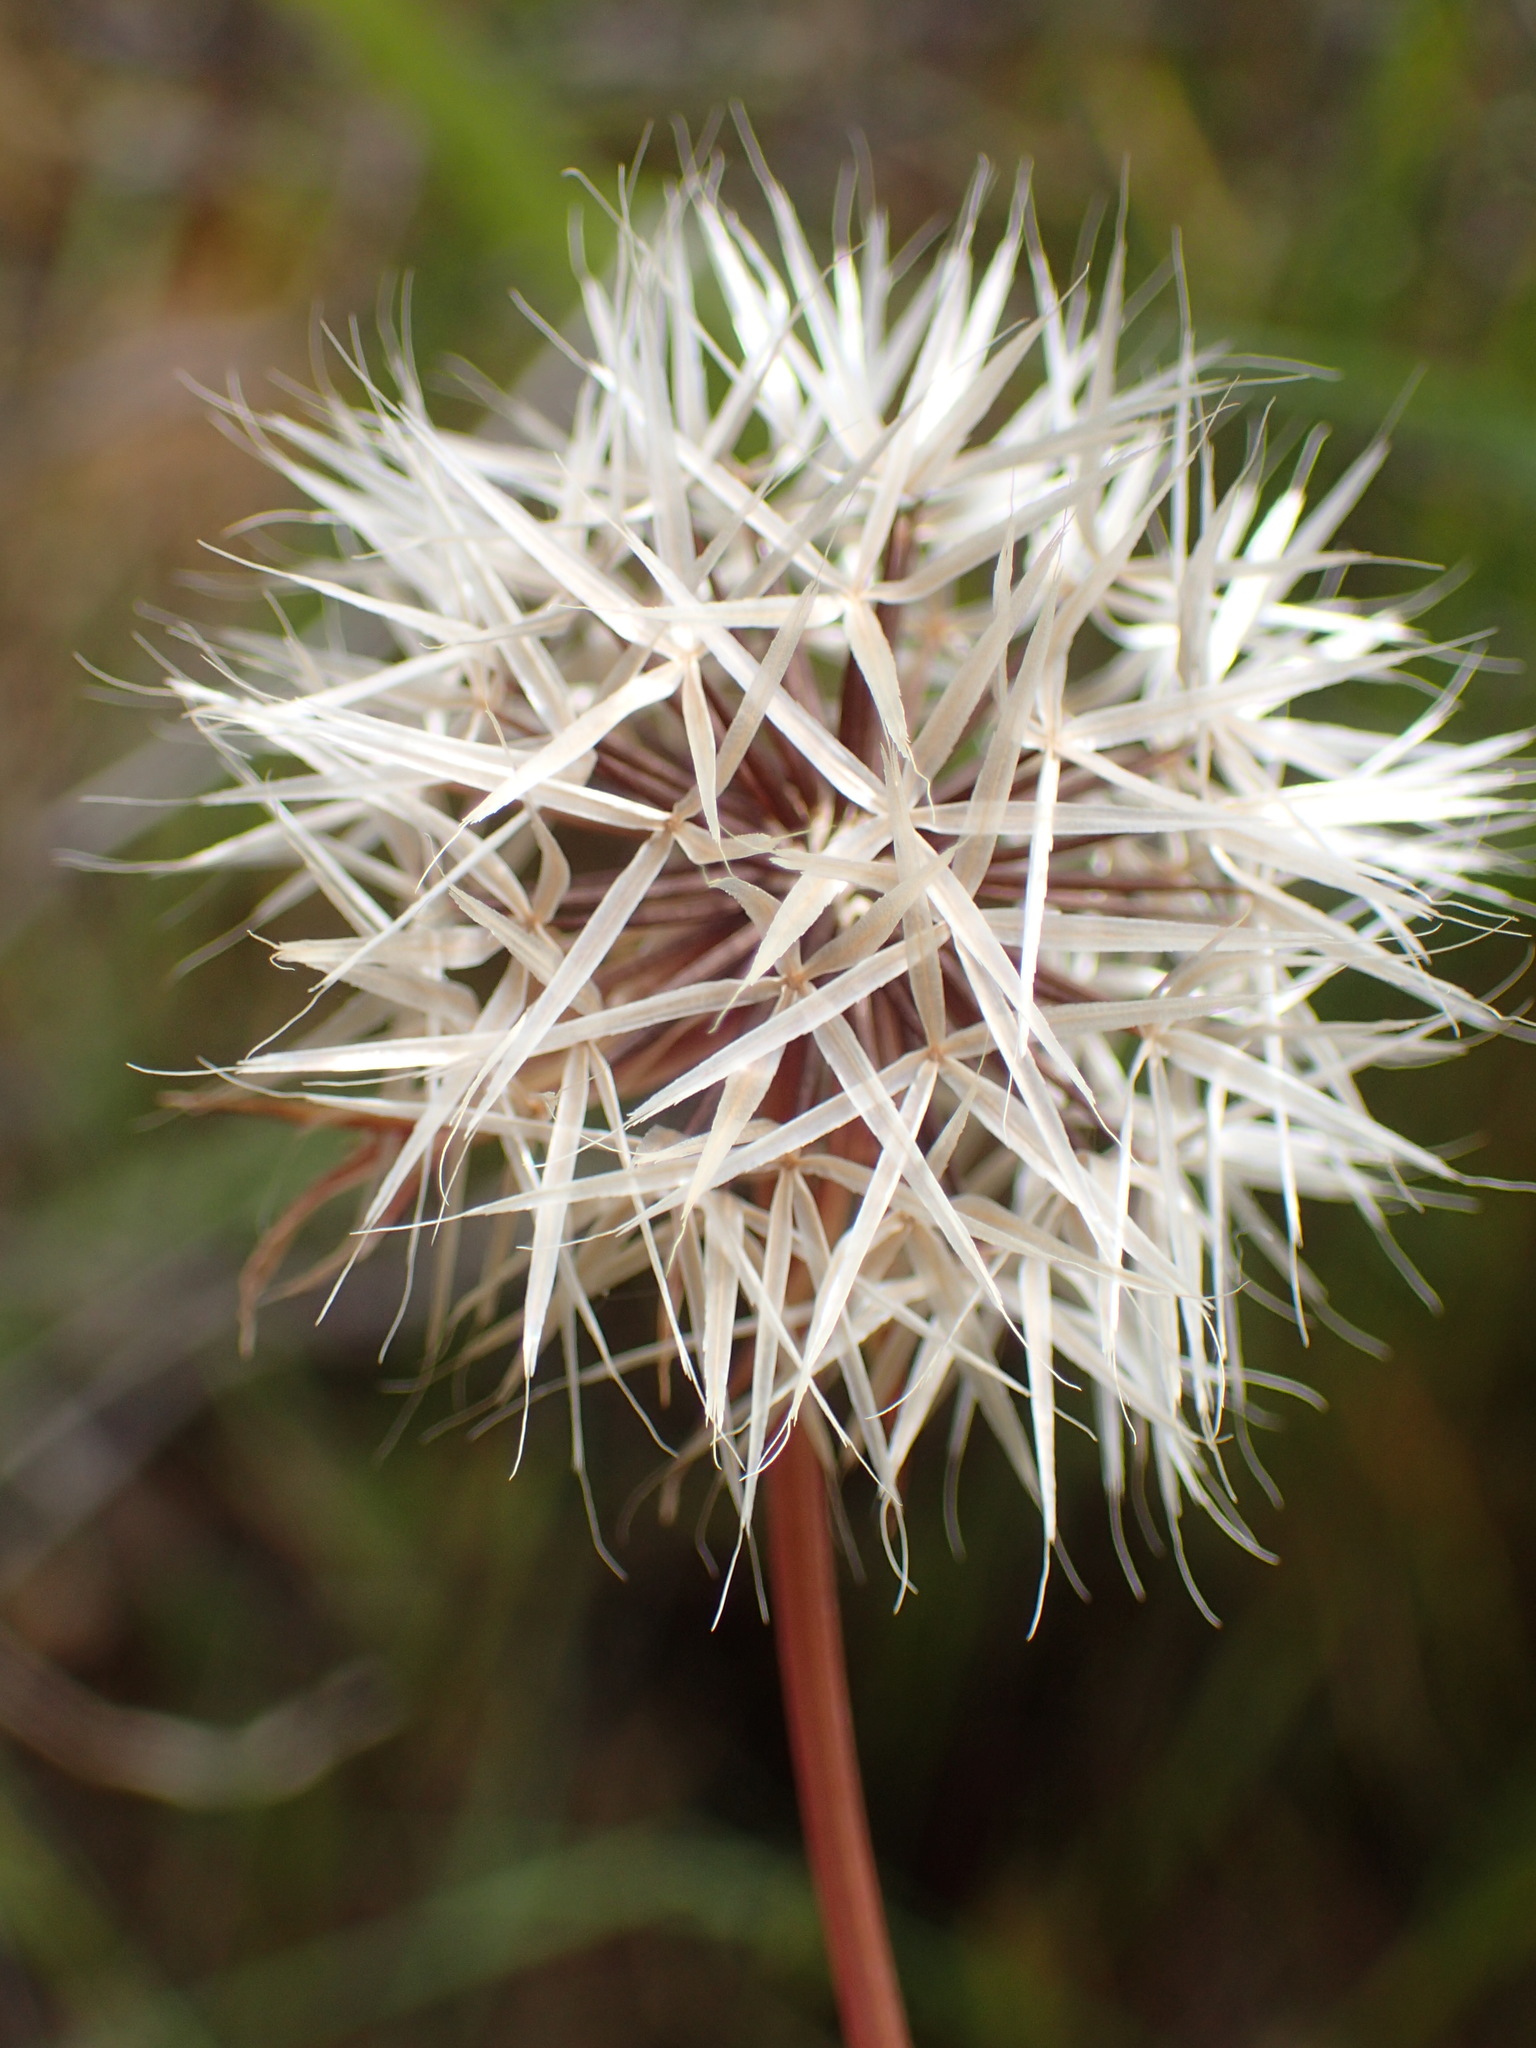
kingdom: Plantae
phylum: Tracheophyta
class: Magnoliopsida
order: Asterales
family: Asteraceae
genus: Microseris
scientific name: Microseris lindleyi
